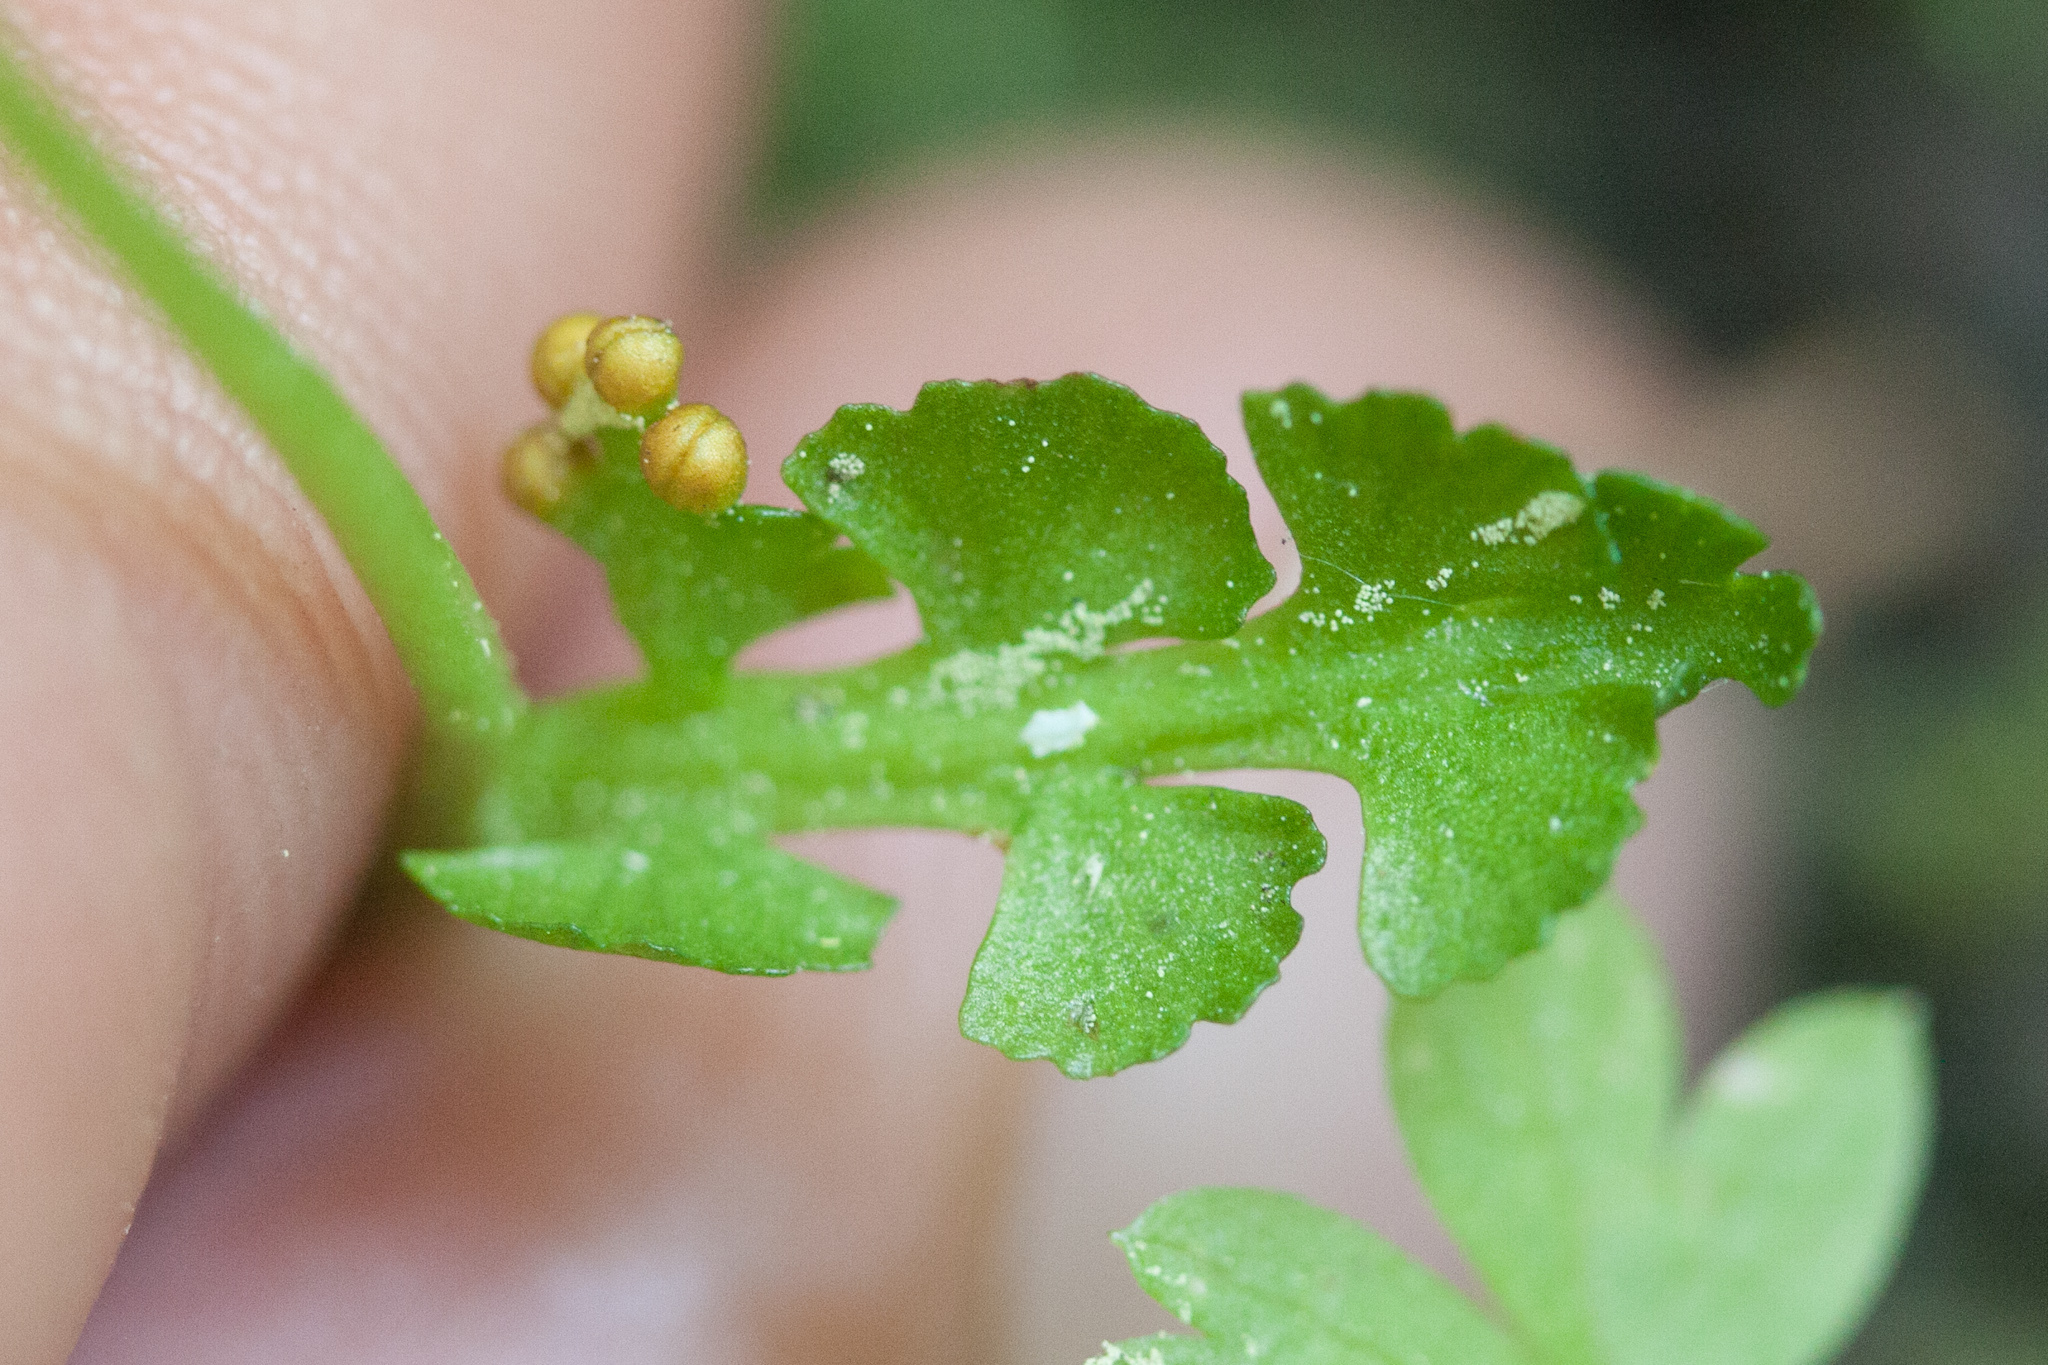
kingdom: Plantae
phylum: Tracheophyta
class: Polypodiopsida
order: Ophioglossales
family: Ophioglossaceae
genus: Botrychium
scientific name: Botrychium crenulatum
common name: Crenulate moonwort
